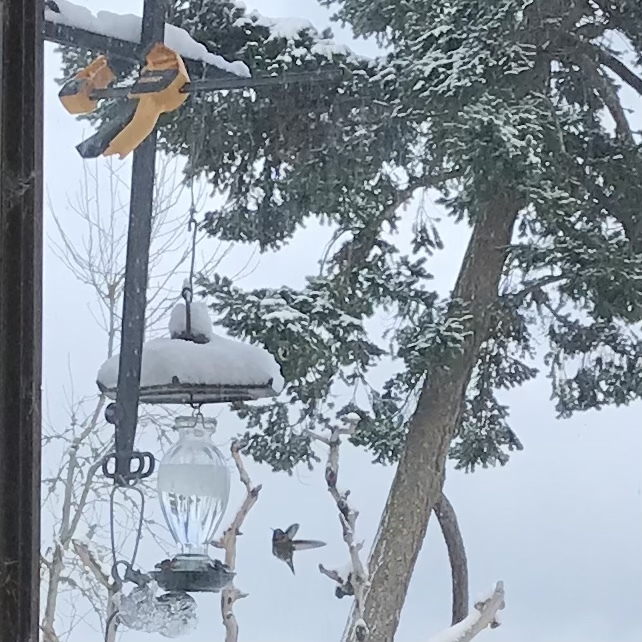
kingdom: Animalia
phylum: Chordata
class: Aves
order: Apodiformes
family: Trochilidae
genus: Calypte
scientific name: Calypte anna
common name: Anna's hummingbird
